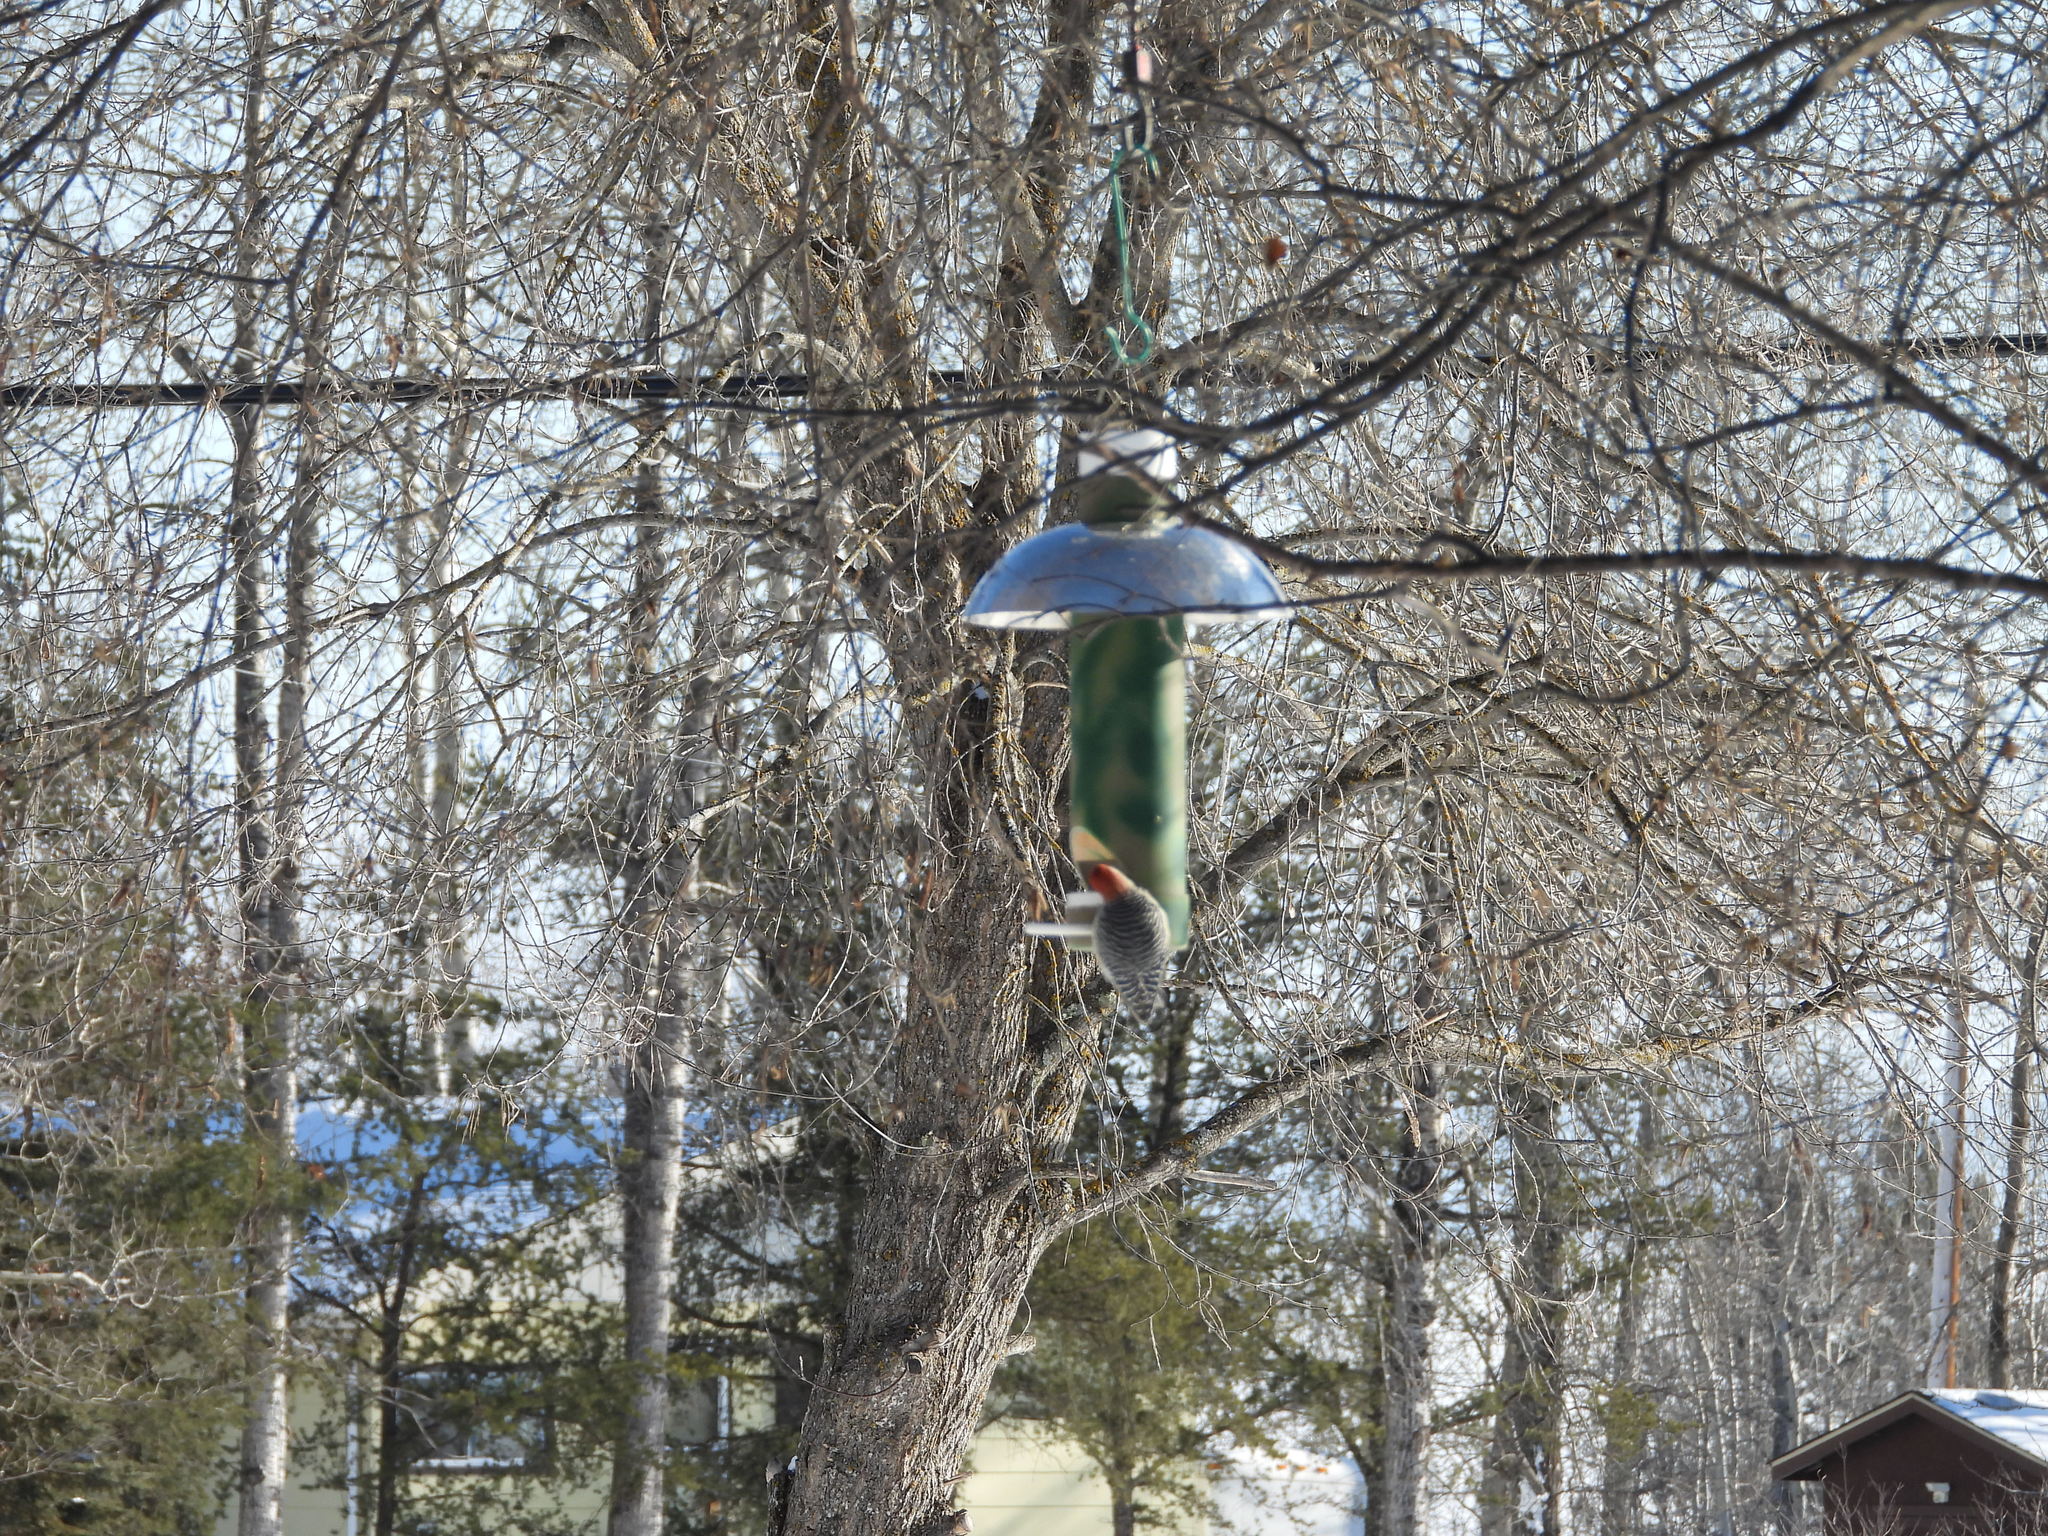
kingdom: Animalia
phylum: Chordata
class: Aves
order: Piciformes
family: Picidae
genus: Melanerpes
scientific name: Melanerpes carolinus
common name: Red-bellied woodpecker
